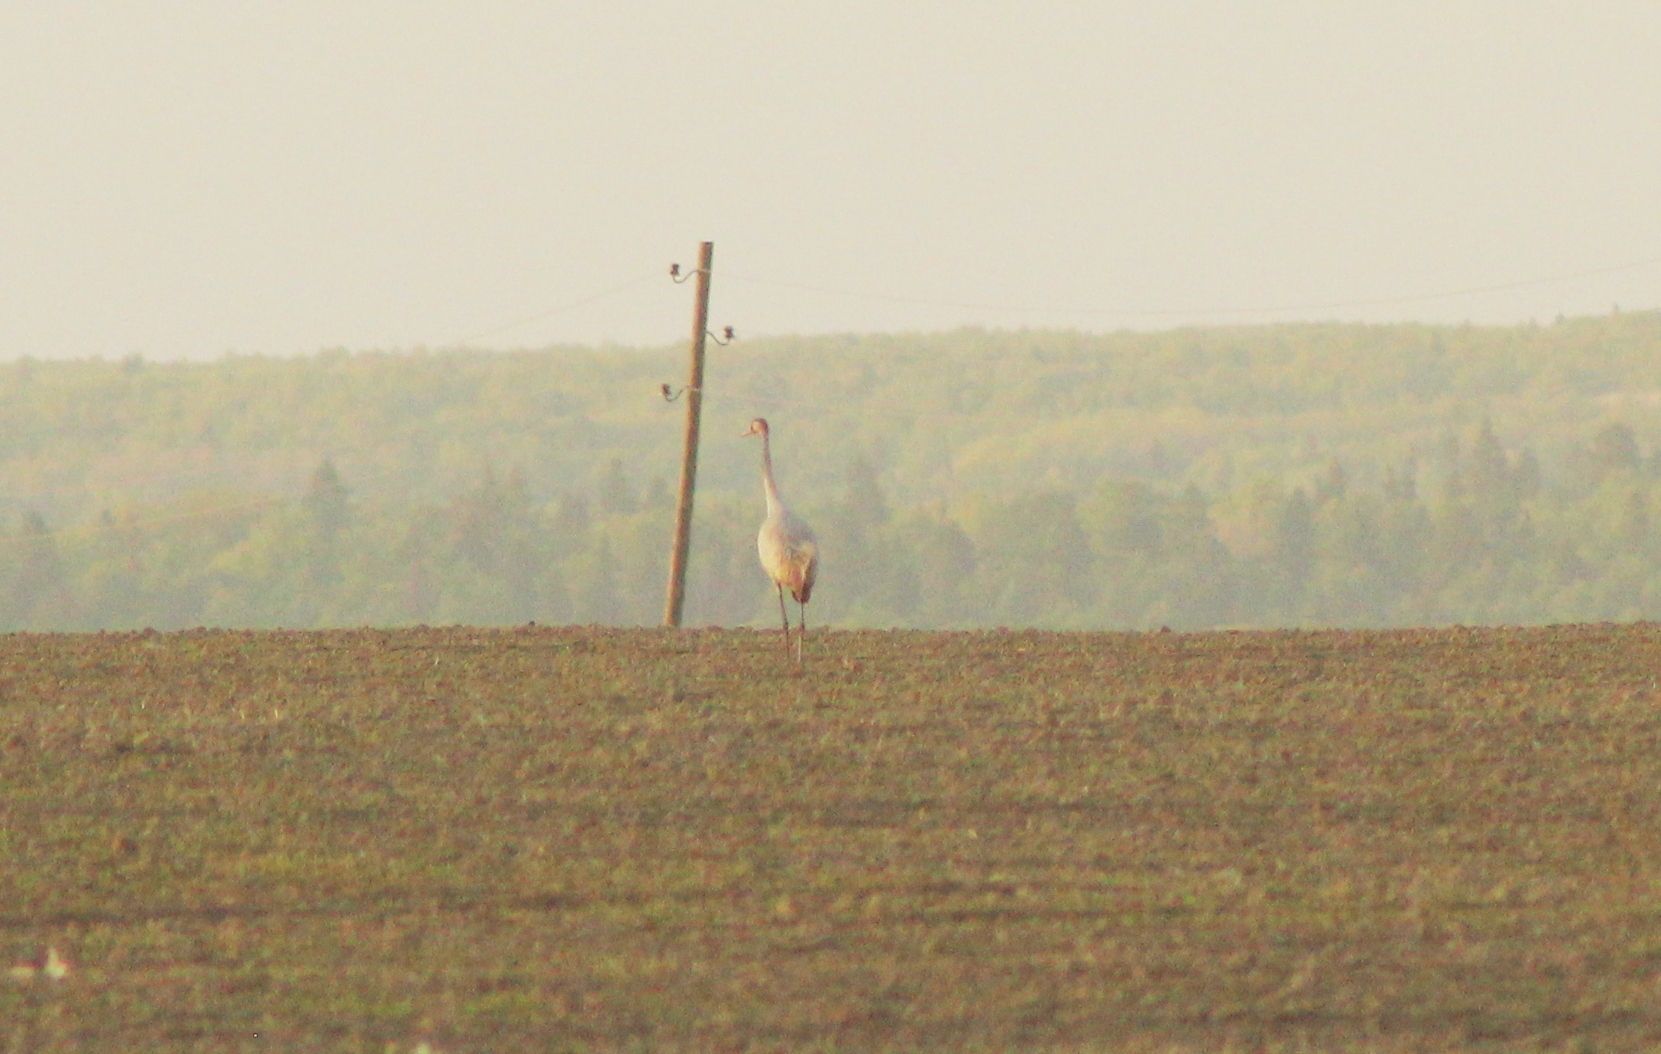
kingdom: Animalia
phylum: Chordata
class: Aves
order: Gruiformes
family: Gruidae
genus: Grus
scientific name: Grus grus
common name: Common crane
